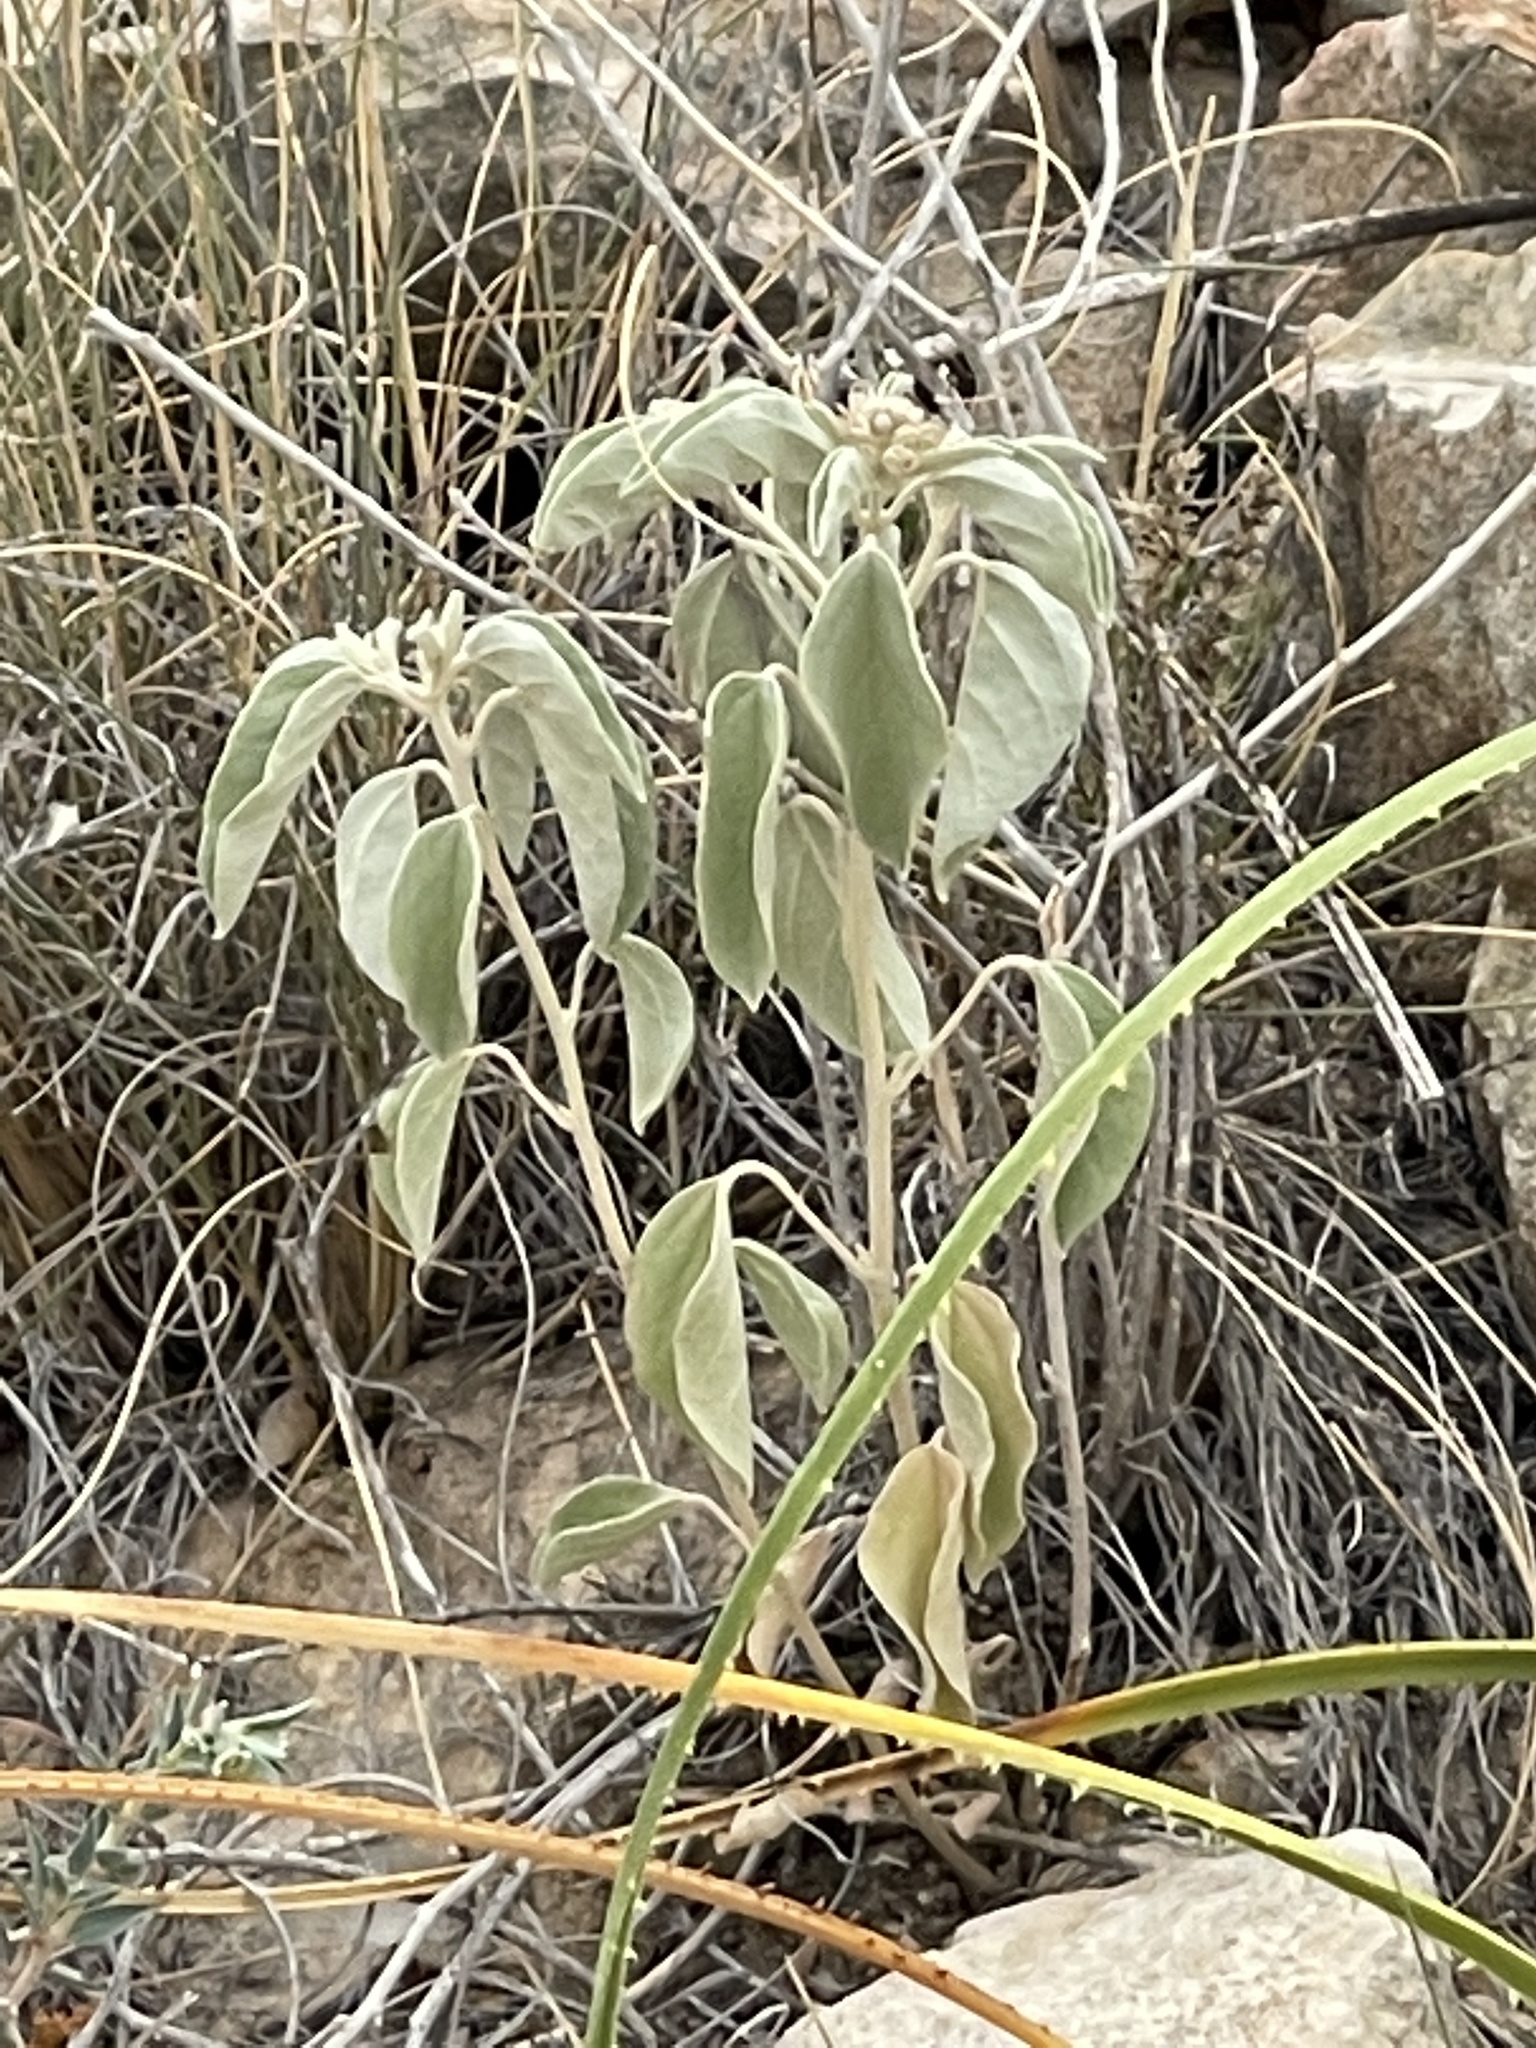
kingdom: Plantae
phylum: Tracheophyta
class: Magnoliopsida
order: Malpighiales
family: Euphorbiaceae
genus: Croton
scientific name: Croton pottsii
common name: Leatherweed
